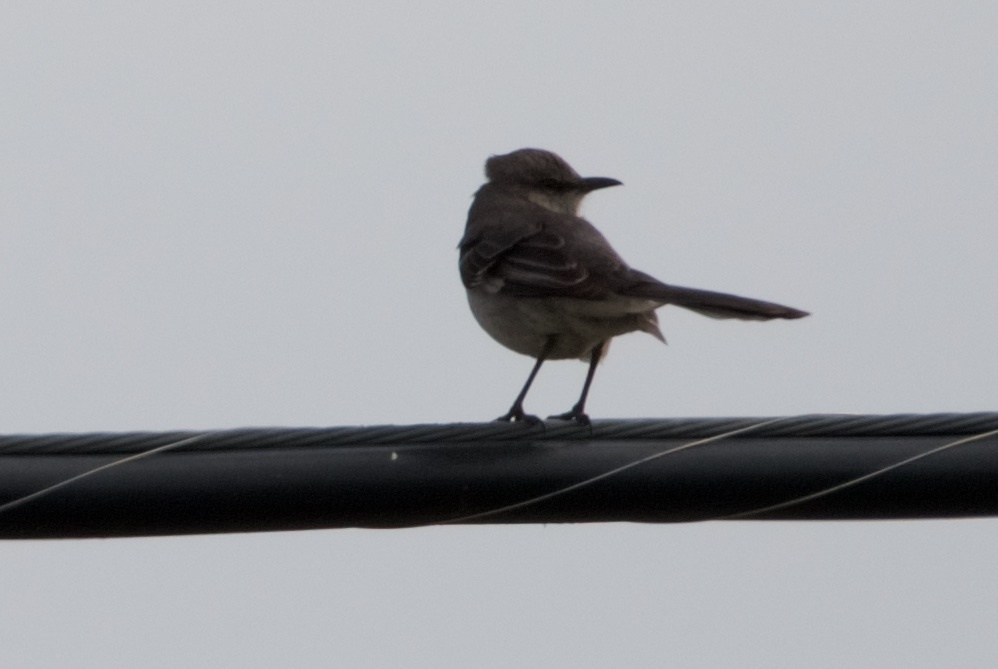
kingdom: Animalia
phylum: Chordata
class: Aves
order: Passeriformes
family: Mimidae
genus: Mimus
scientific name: Mimus polyglottos
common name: Northern mockingbird
